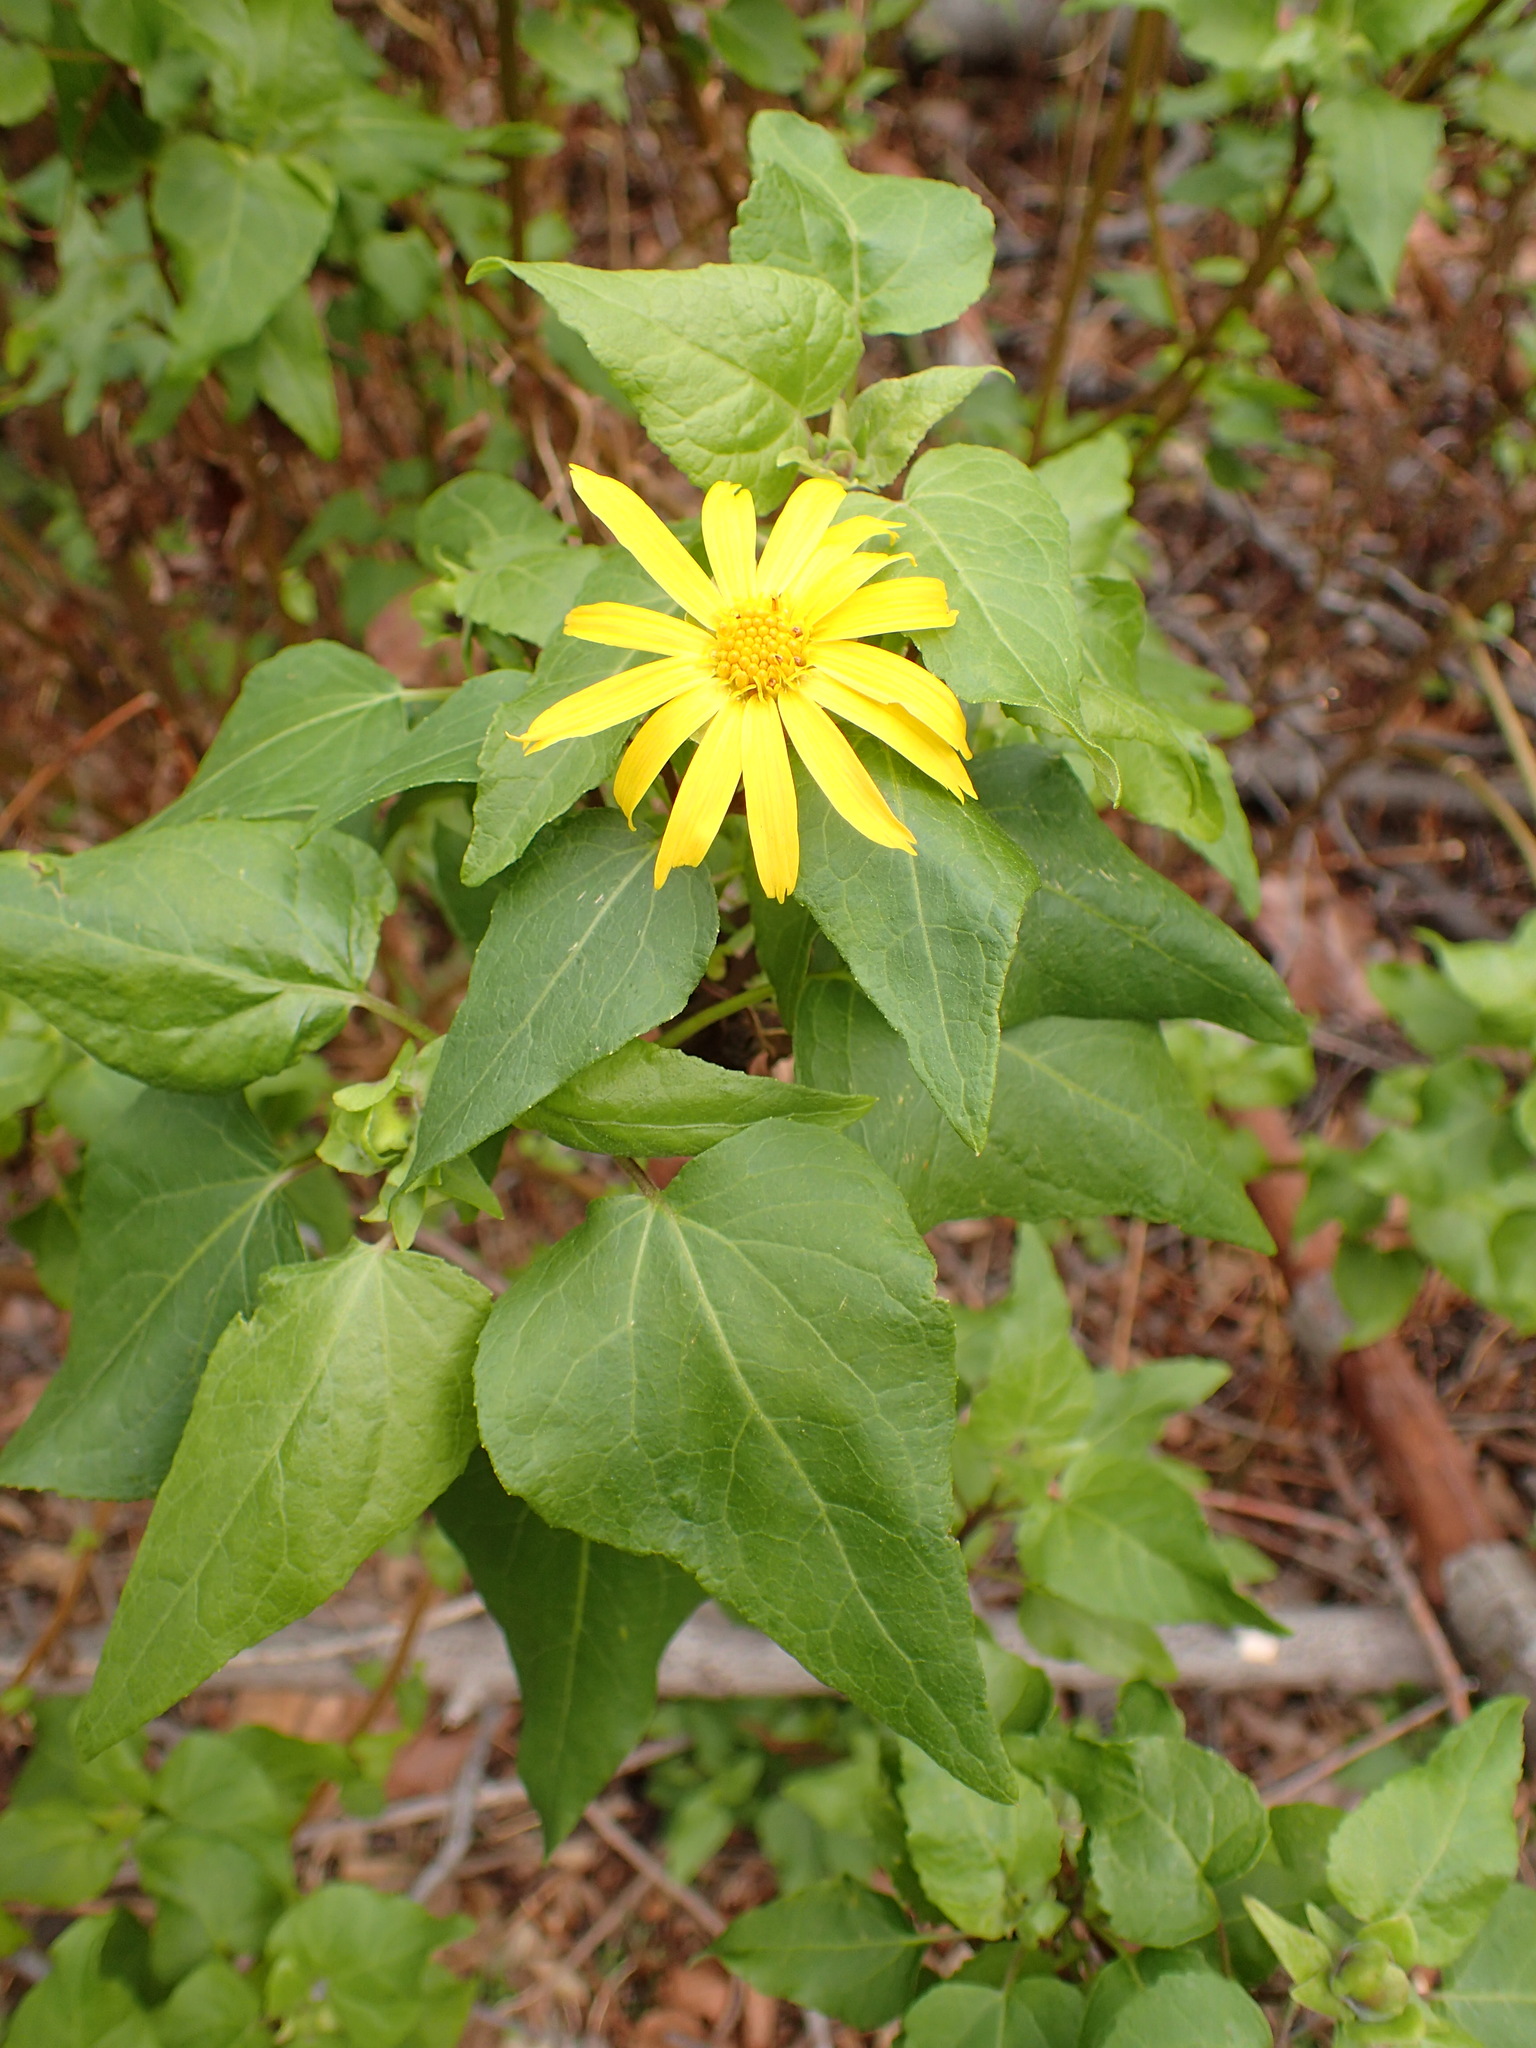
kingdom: Plantae
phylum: Tracheophyta
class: Magnoliopsida
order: Asterales
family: Asteraceae
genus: Venegasia
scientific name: Venegasia carpesioides
